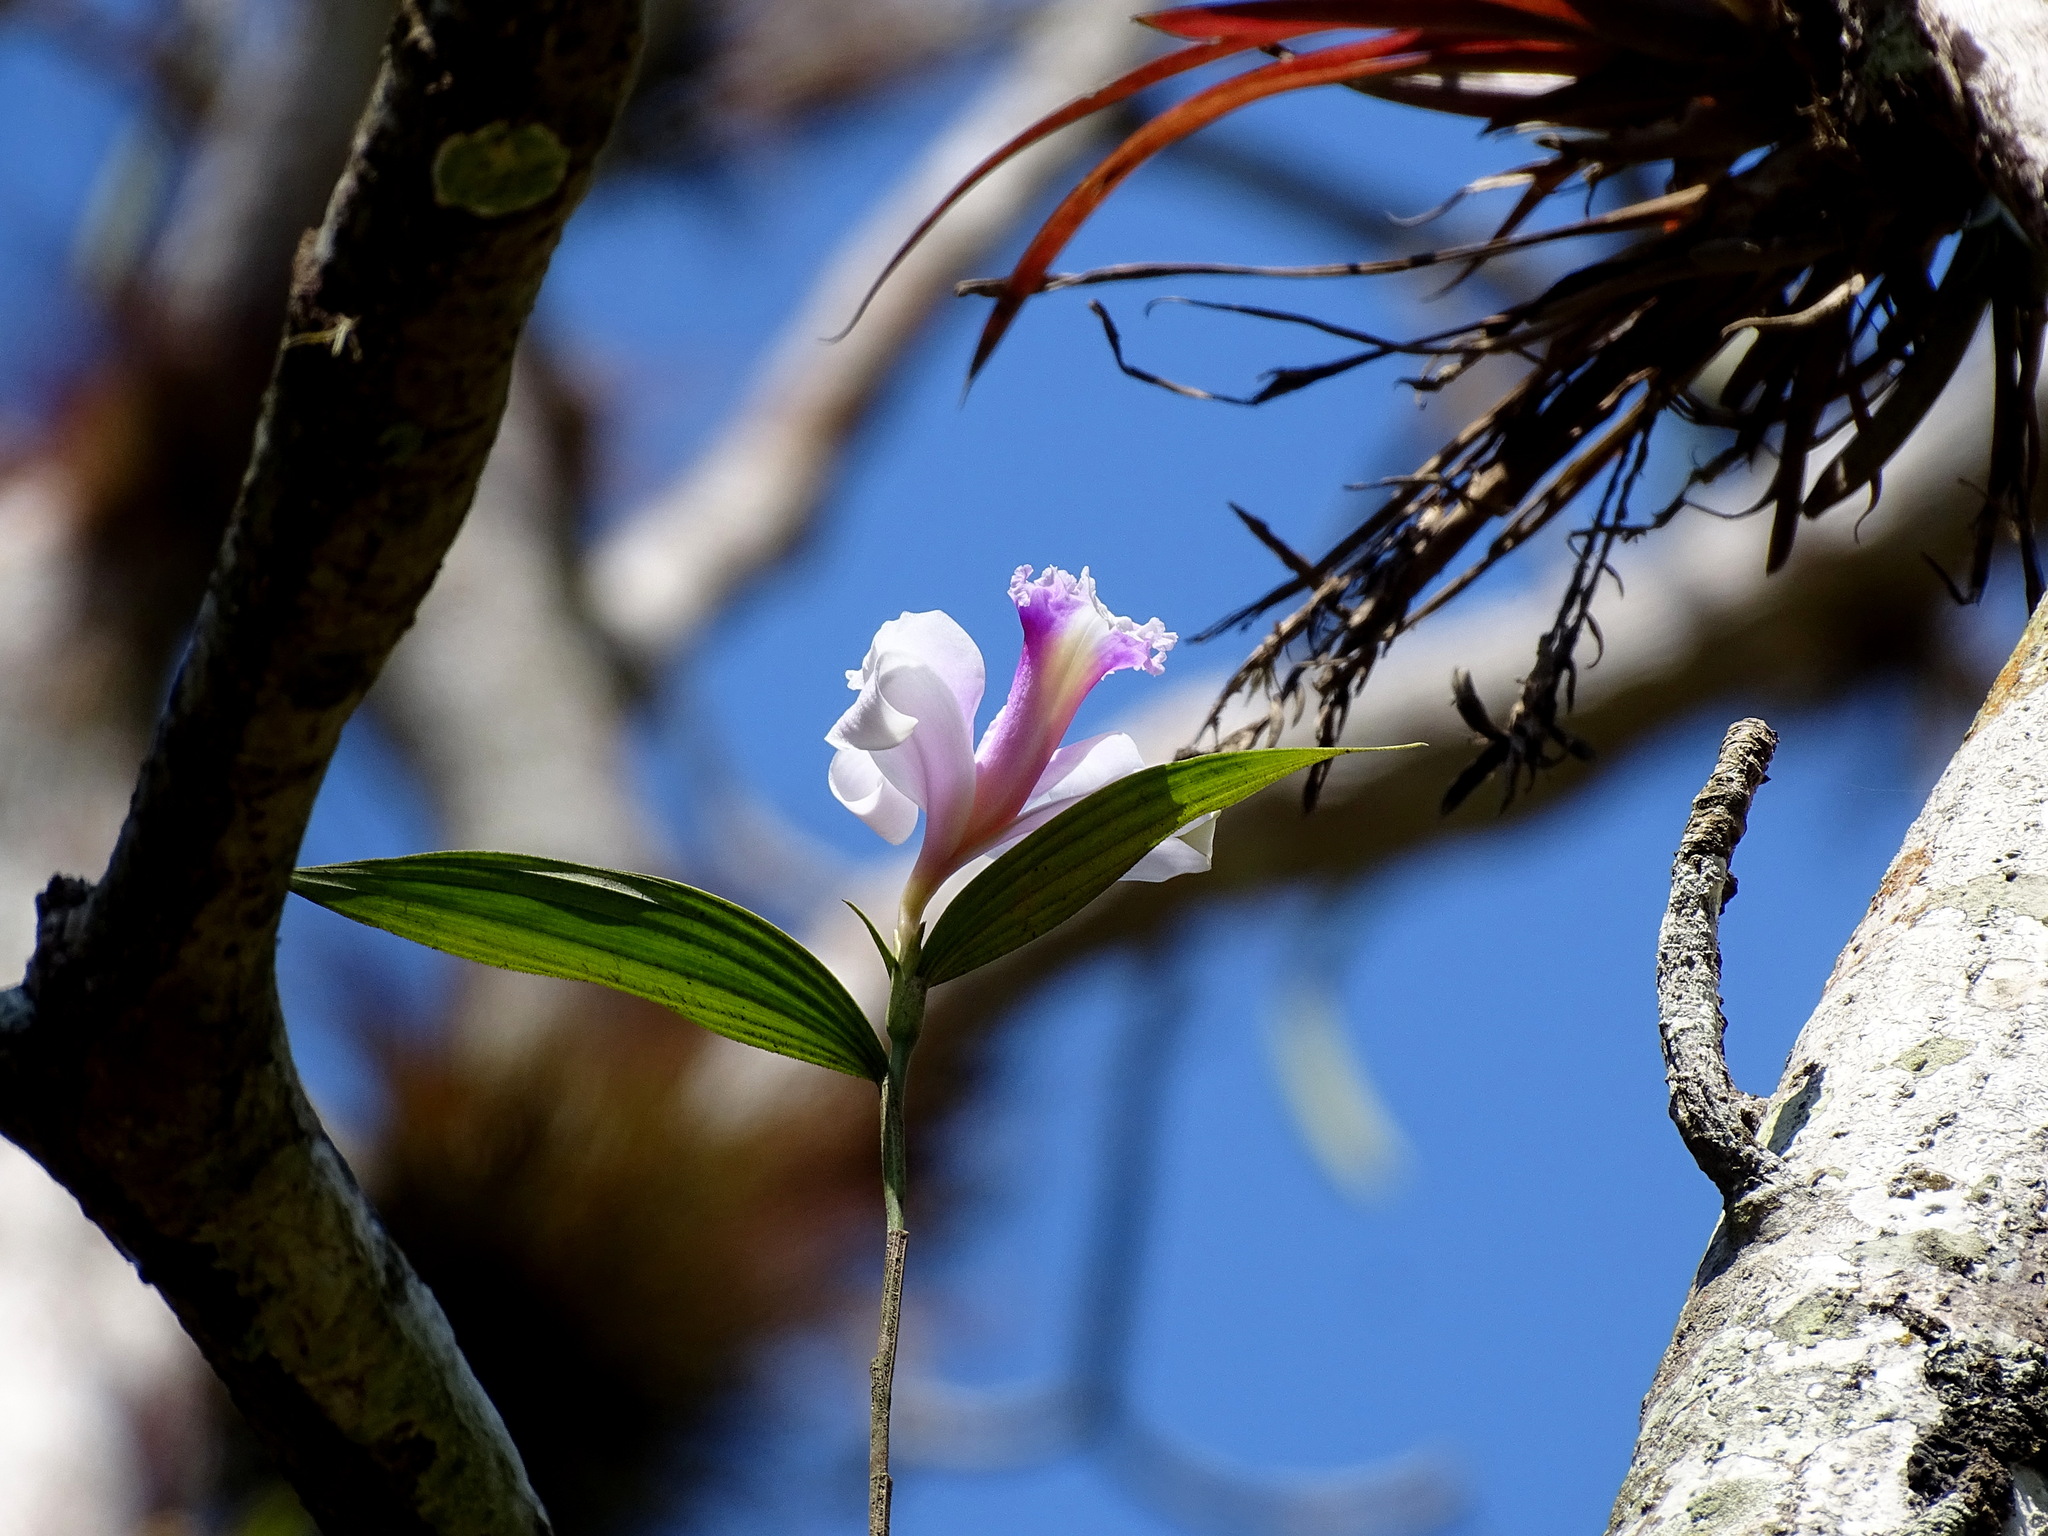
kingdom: Plantae
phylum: Tracheophyta
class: Liliopsida
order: Asparagales
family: Orchidaceae
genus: Sobralia
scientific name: Sobralia decora
